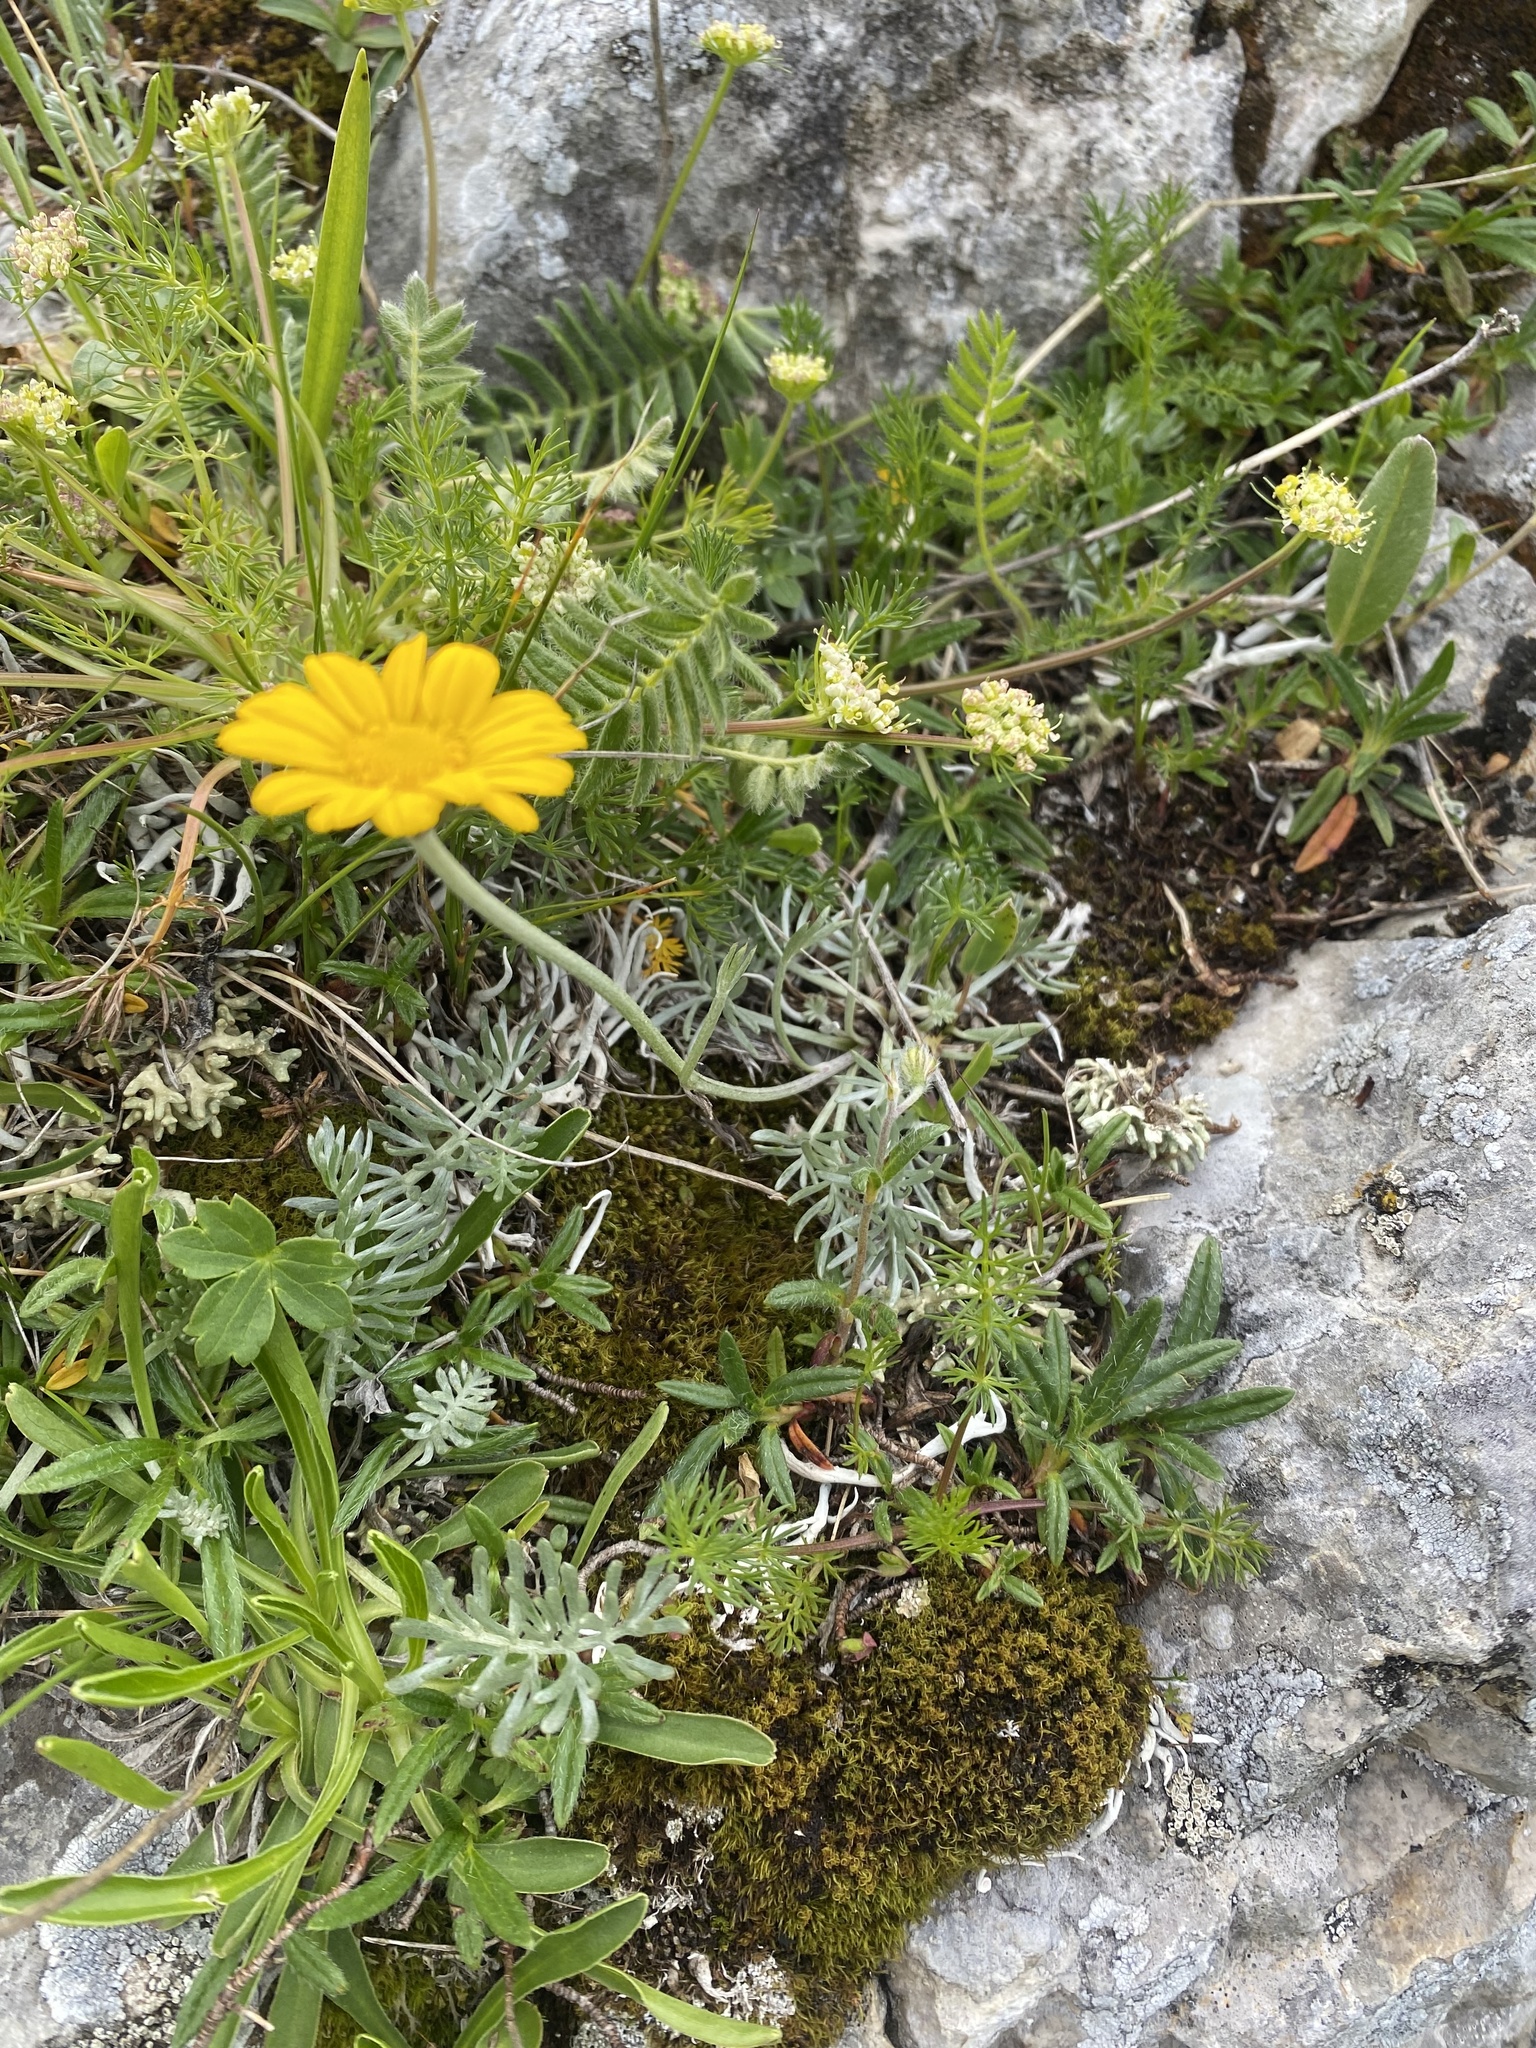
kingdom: Plantae
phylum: Tracheophyta
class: Magnoliopsida
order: Asterales
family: Asteraceae
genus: Archanthemis
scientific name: Archanthemis marschalliana
